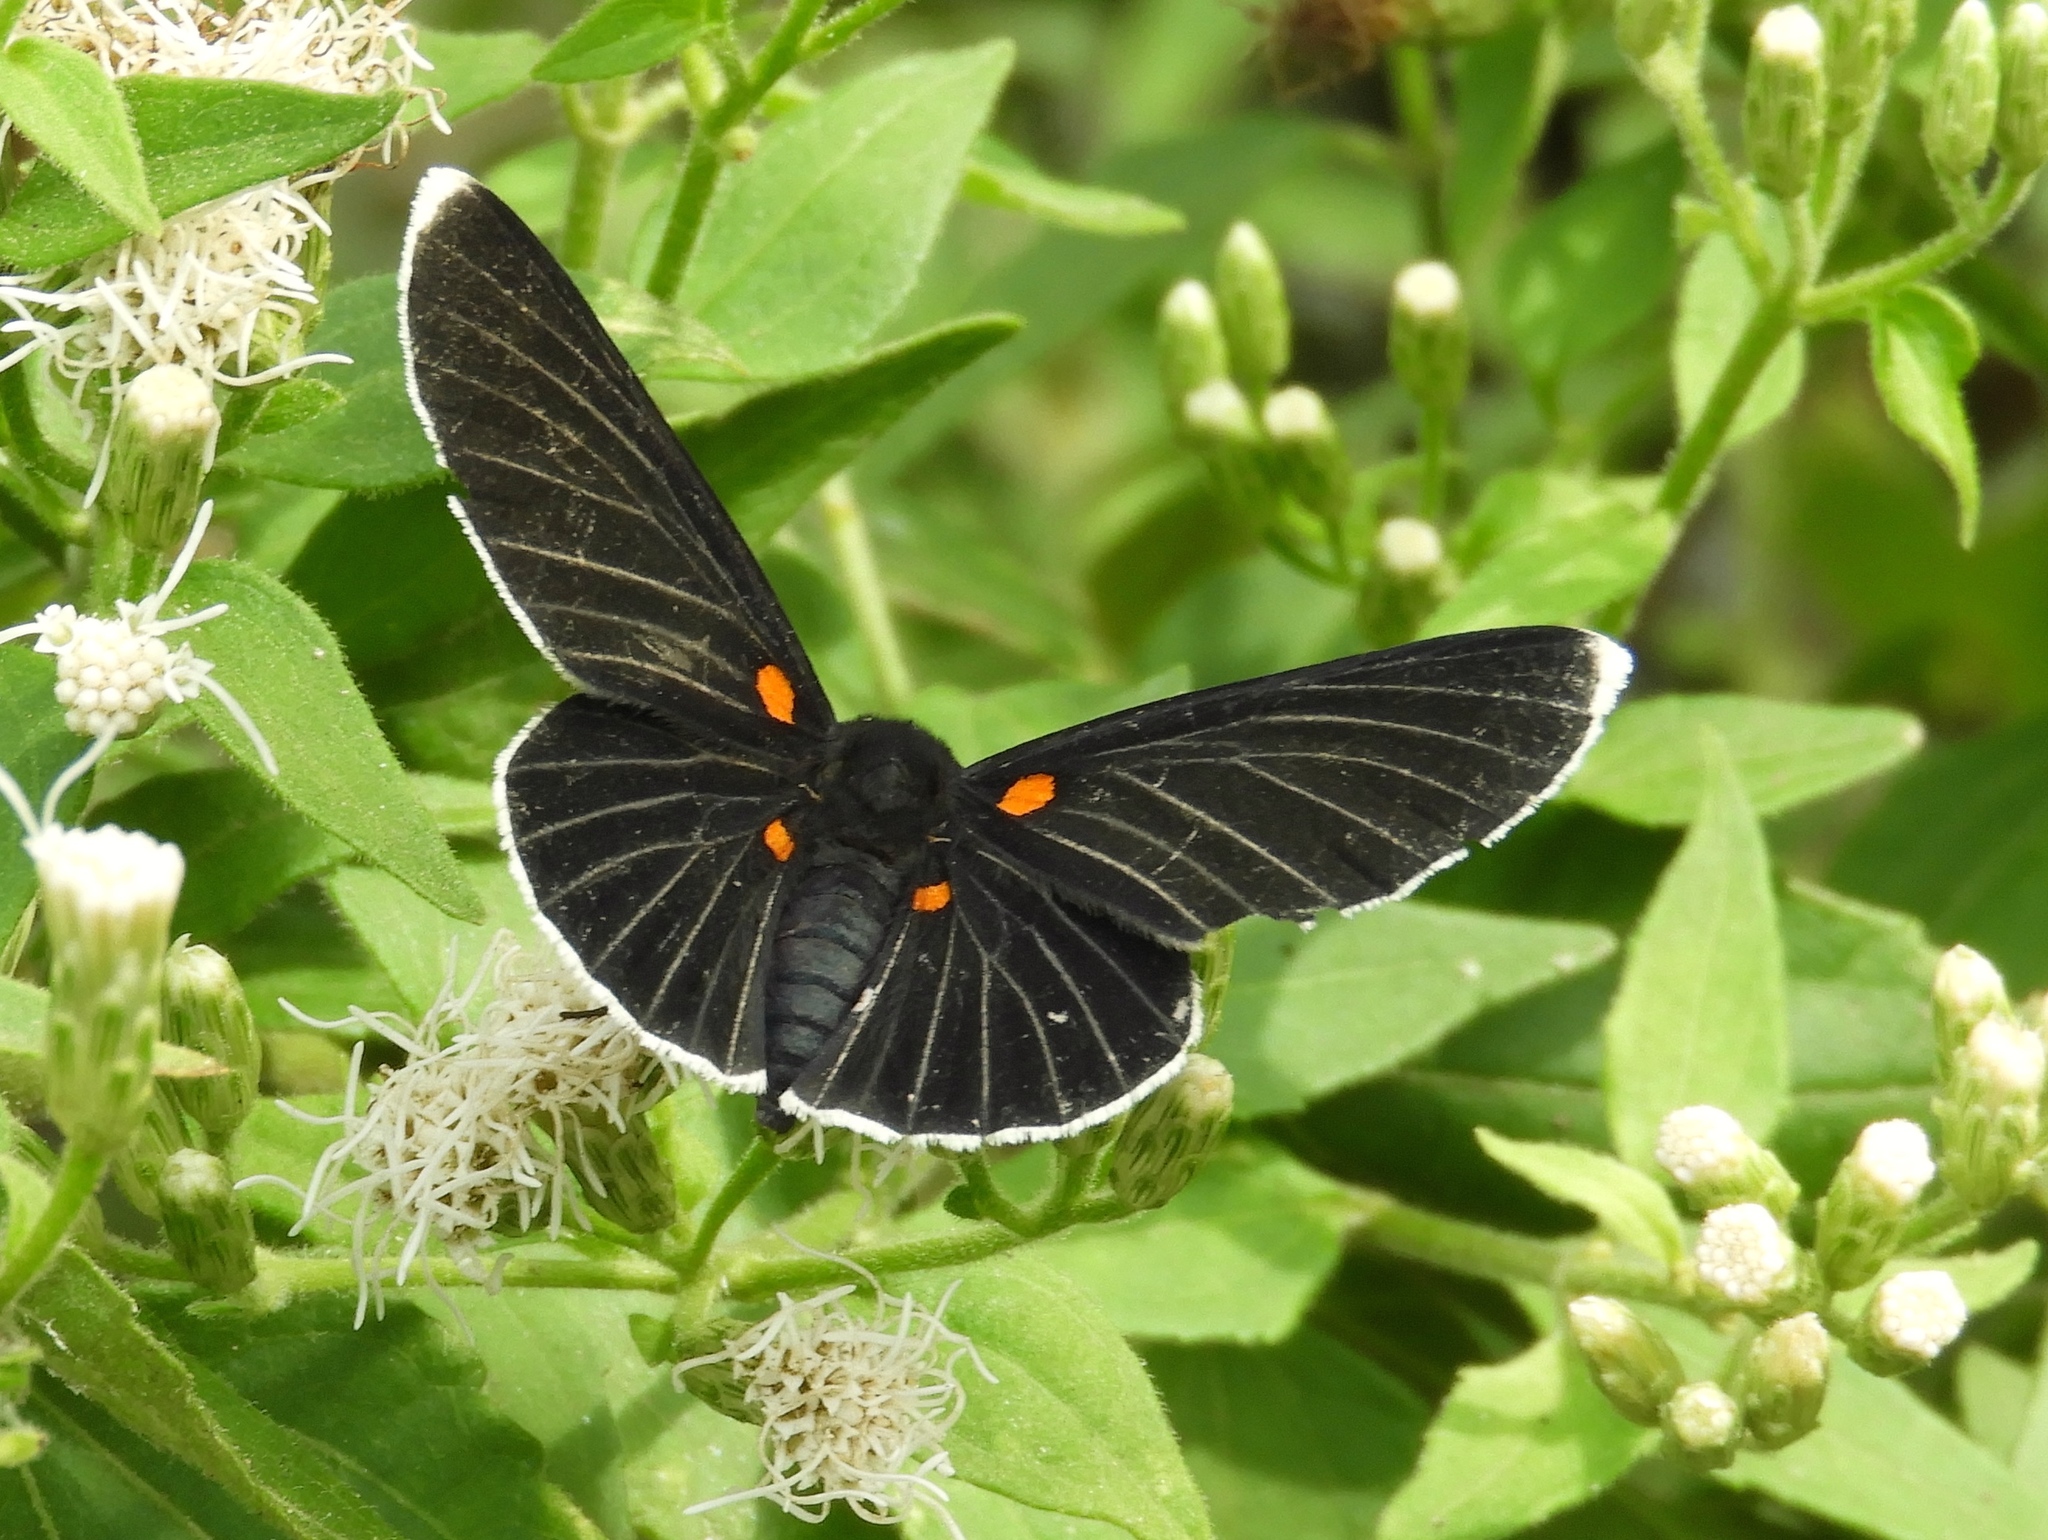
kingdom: Animalia
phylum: Arthropoda
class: Insecta
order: Lepidoptera
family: Lycaenidae
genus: Melanis
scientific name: Melanis
